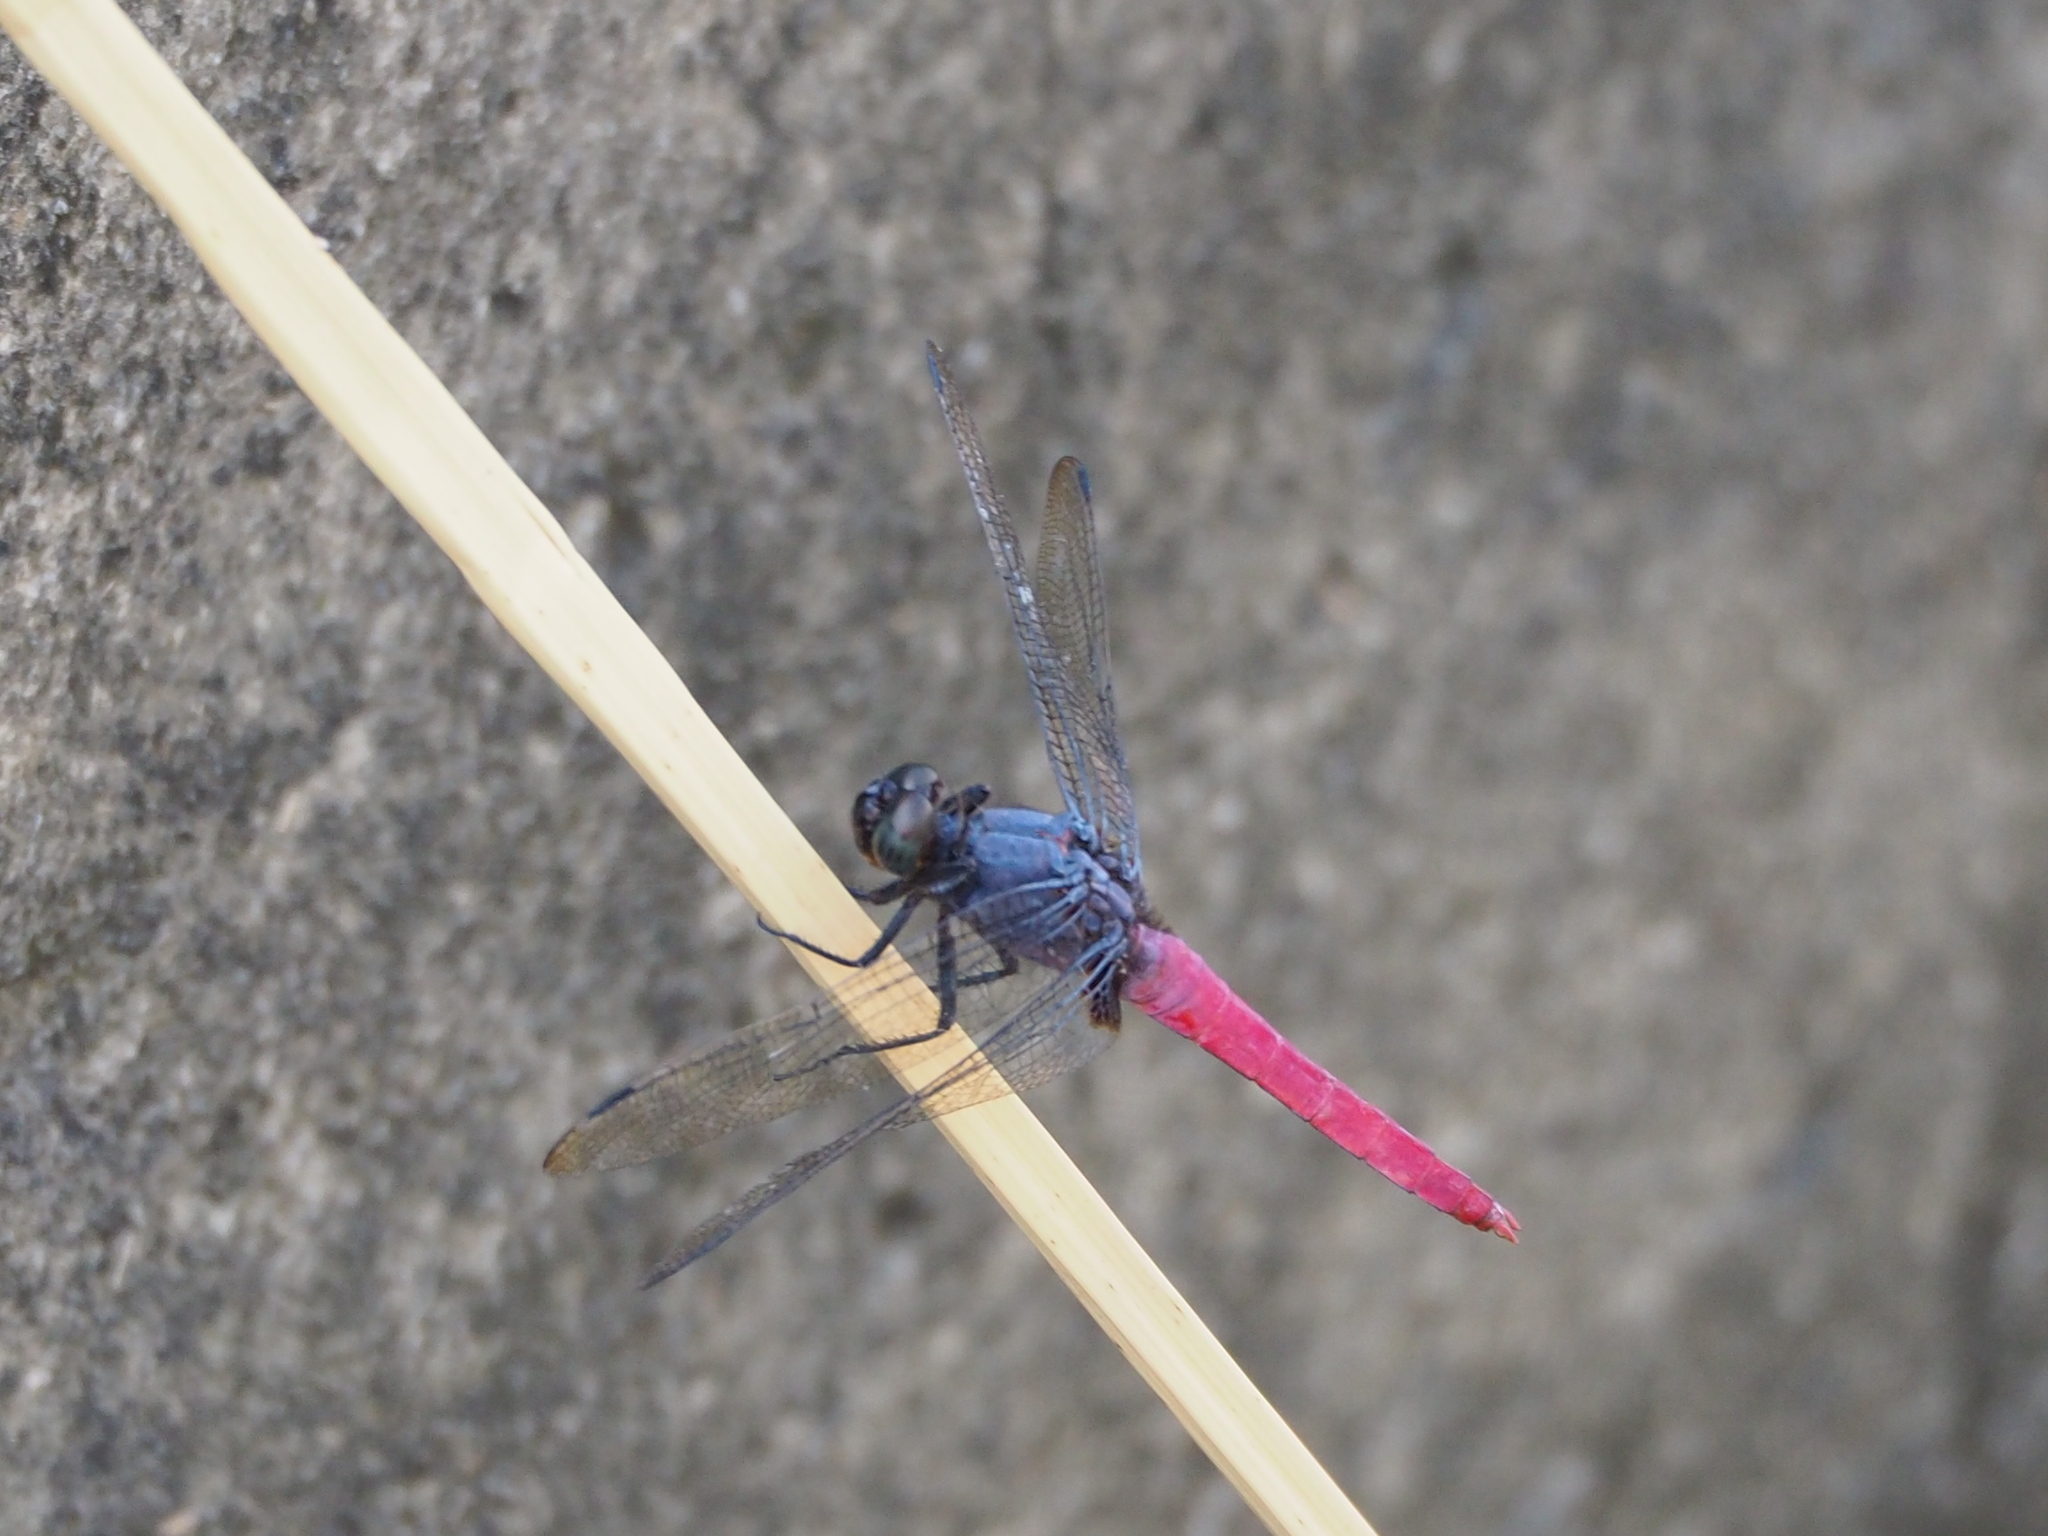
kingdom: Animalia
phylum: Arthropoda
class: Insecta
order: Odonata
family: Libellulidae
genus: Orthetrum
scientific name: Orthetrum pruinosum
